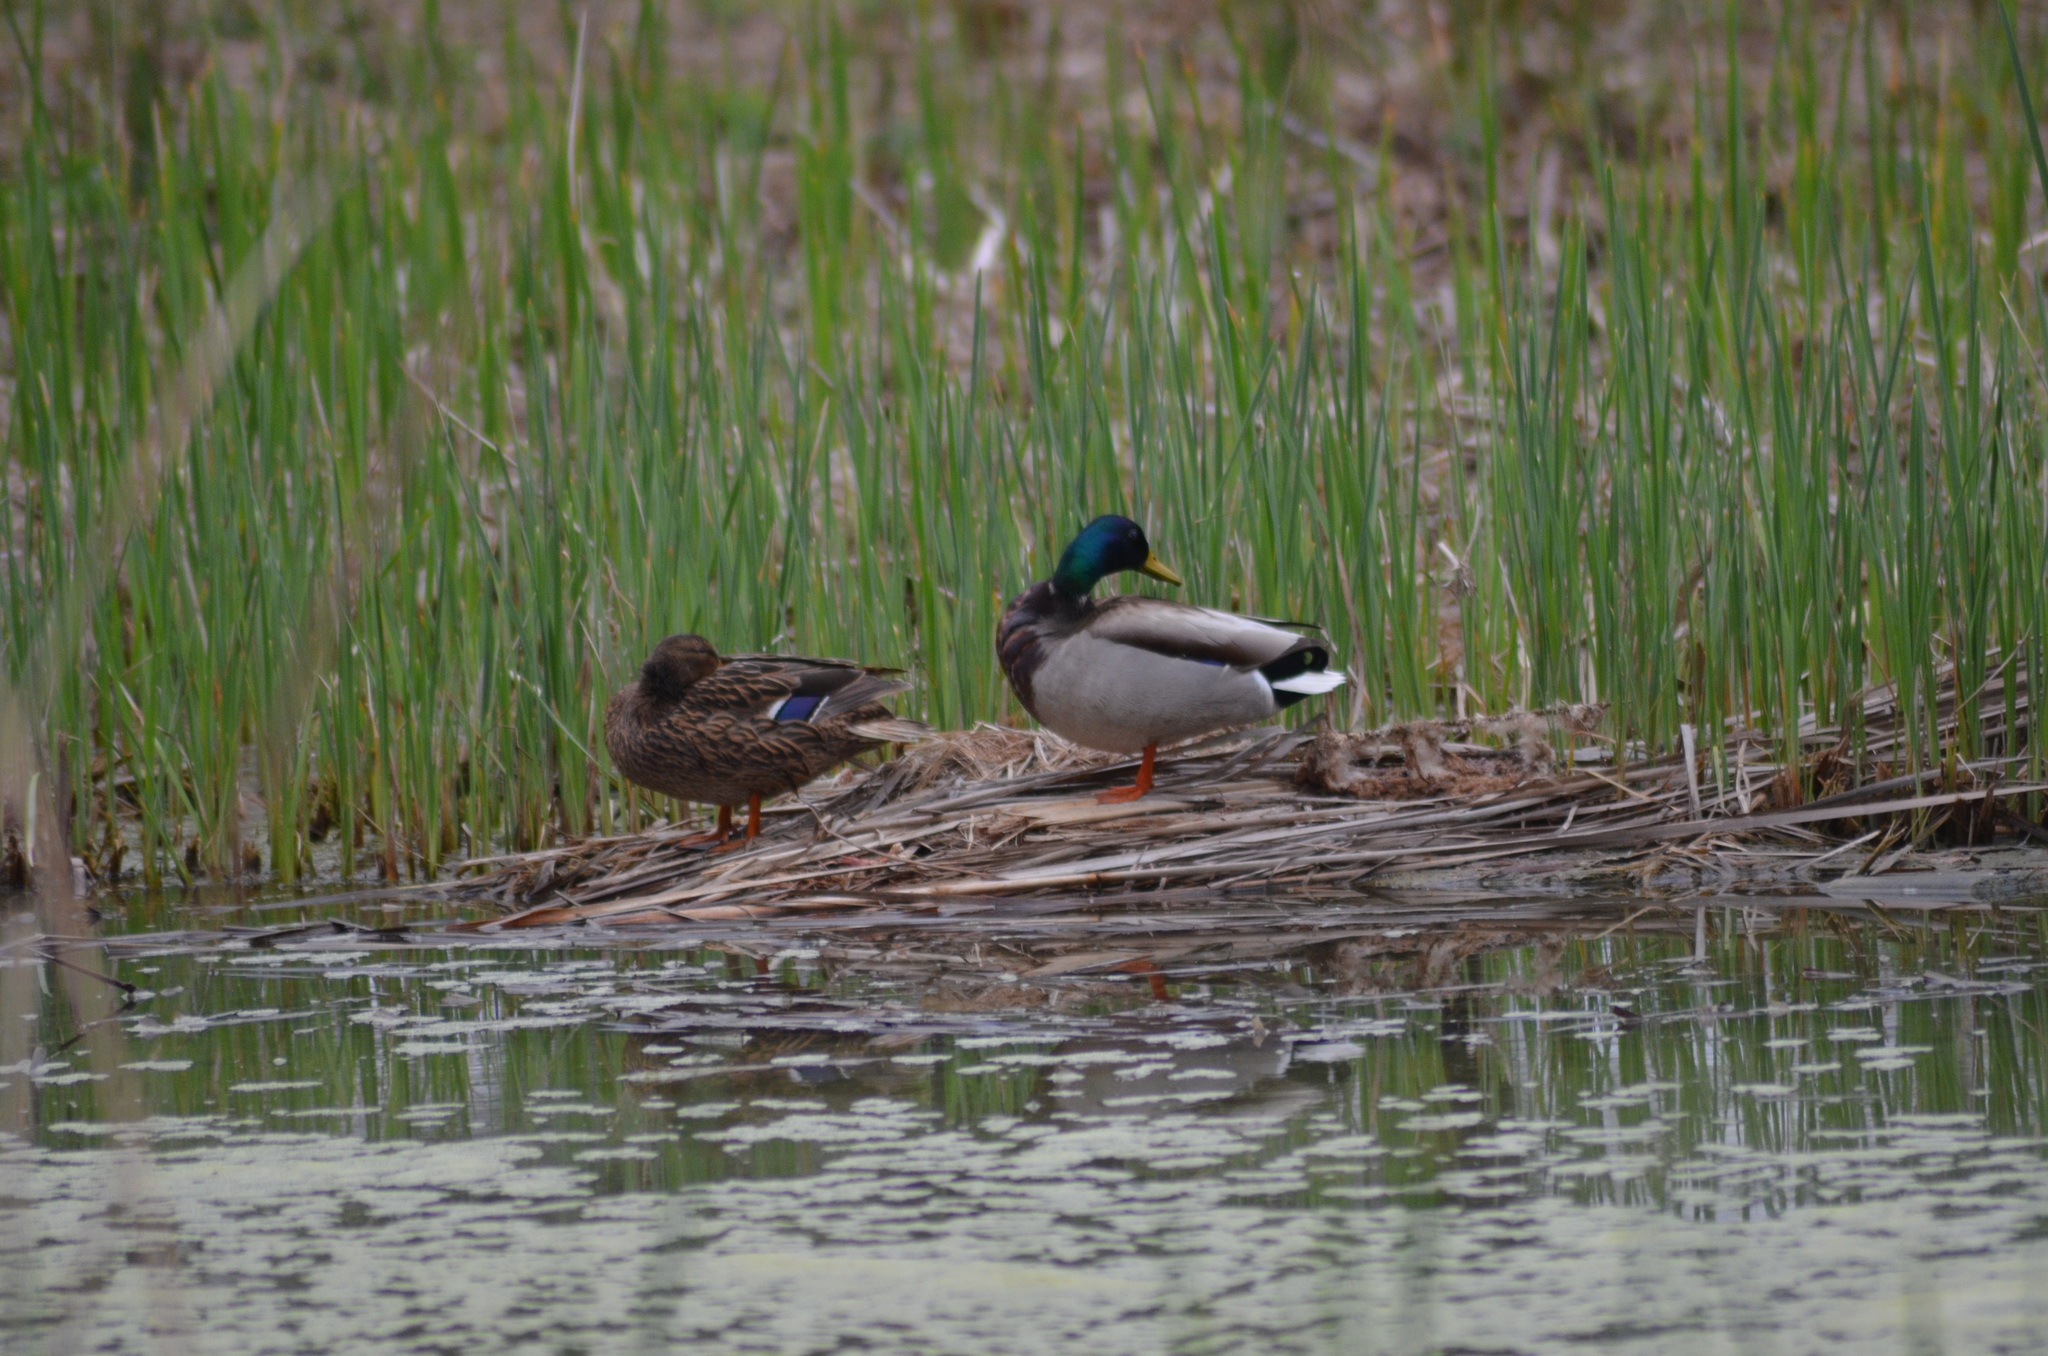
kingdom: Animalia
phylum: Chordata
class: Aves
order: Anseriformes
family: Anatidae
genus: Anas
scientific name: Anas platyrhynchos
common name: Mallard
